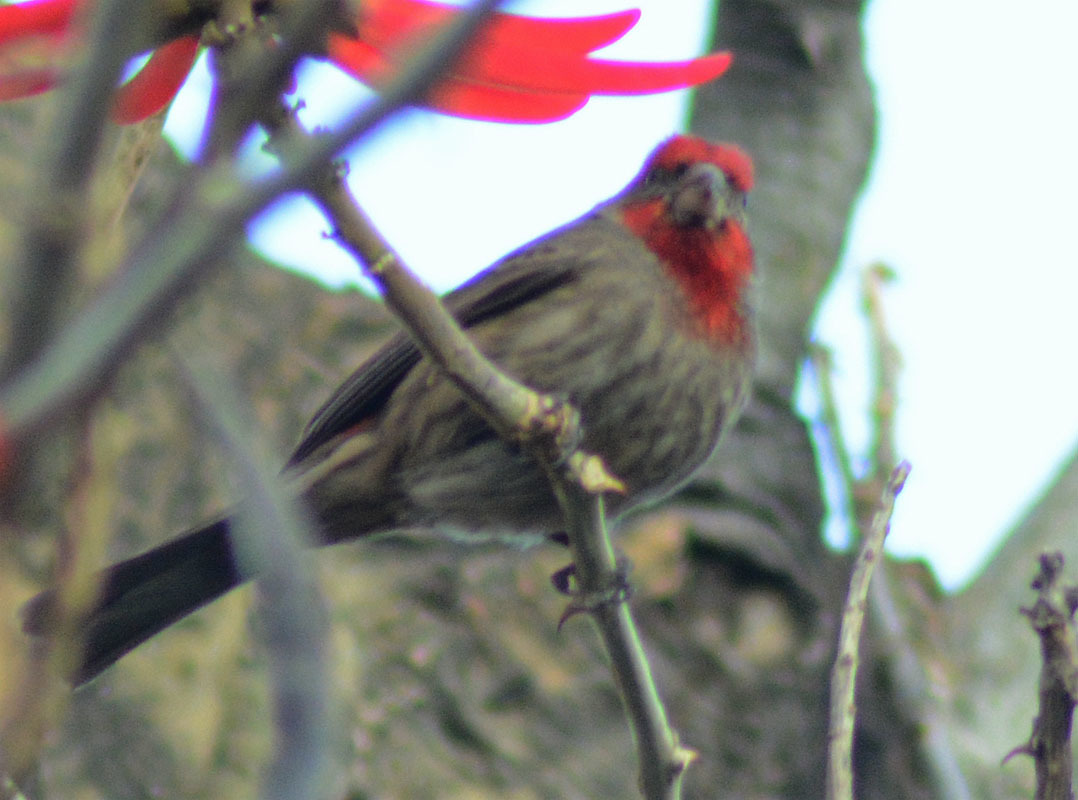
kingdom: Animalia
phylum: Chordata
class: Aves
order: Passeriformes
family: Fringillidae
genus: Haemorhous
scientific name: Haemorhous mexicanus
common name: House finch
